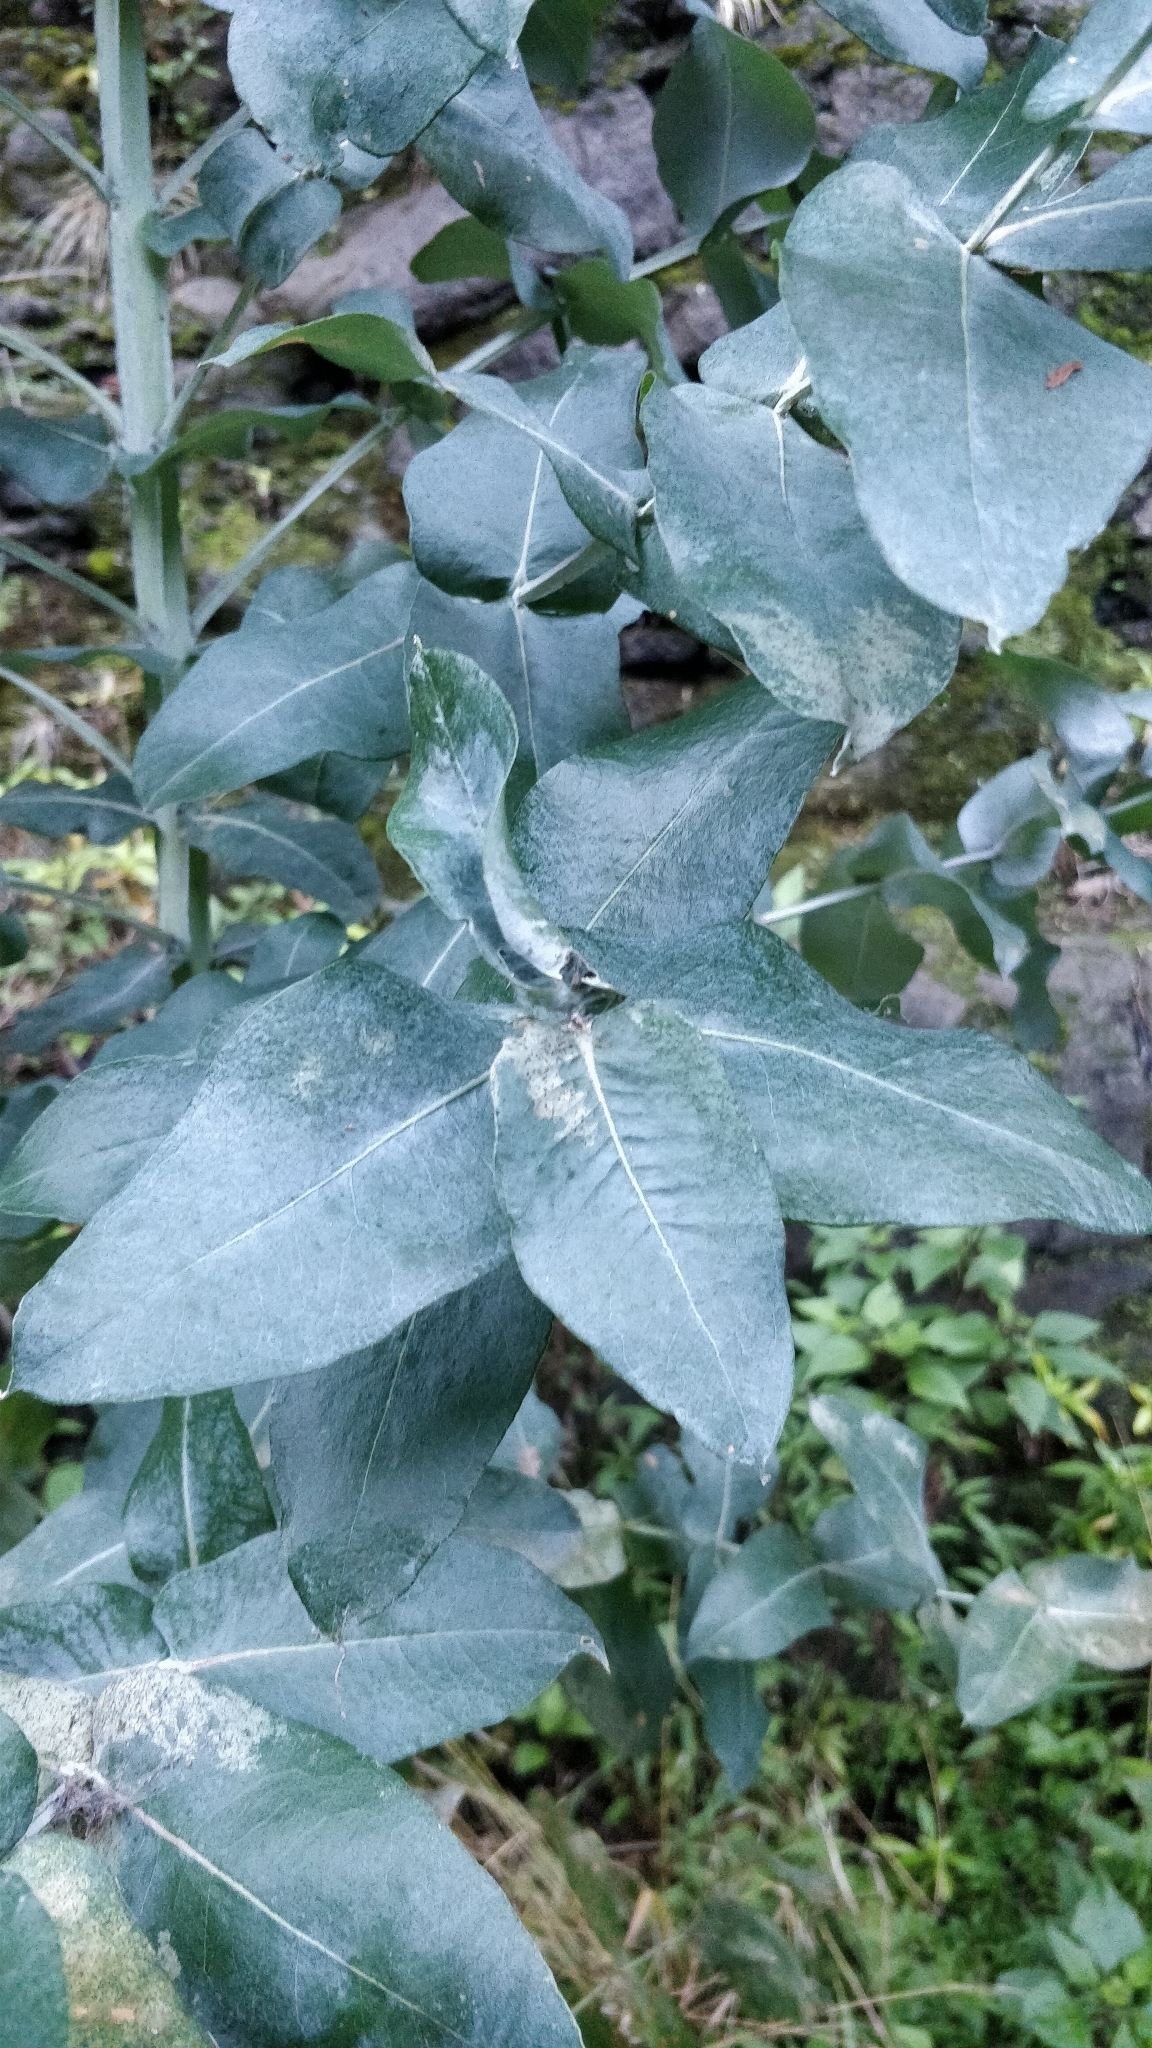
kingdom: Plantae
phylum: Tracheophyta
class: Magnoliopsida
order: Myrtales
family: Myrtaceae
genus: Eucalyptus
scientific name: Eucalyptus globulus
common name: Southern blue-gum
